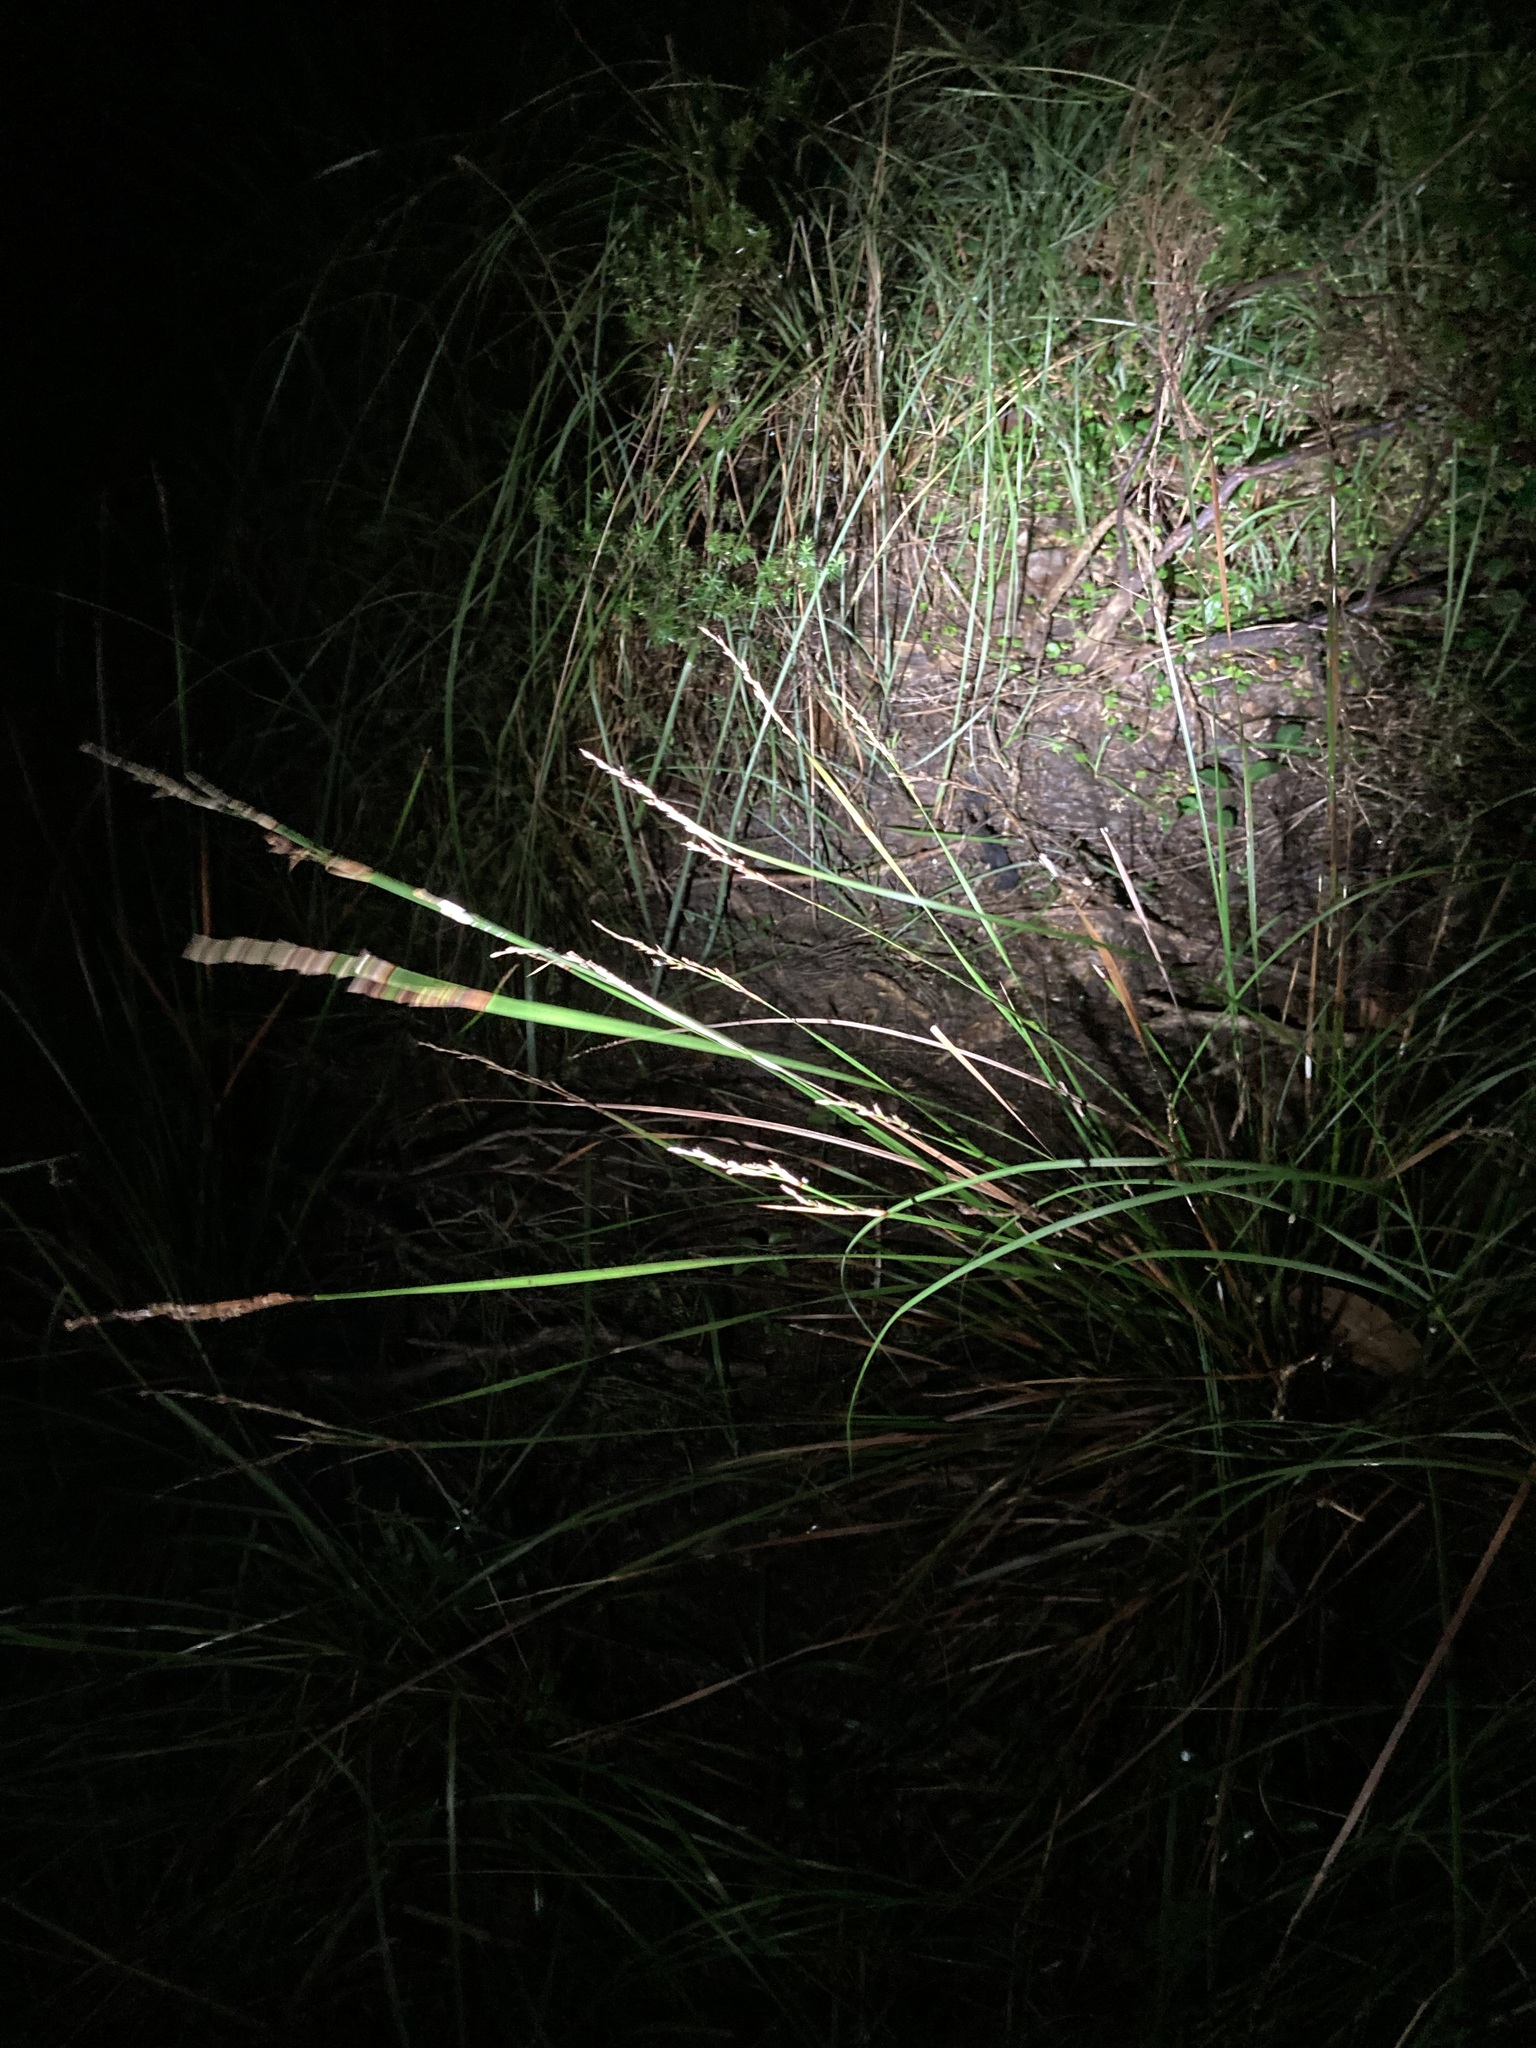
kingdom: Plantae
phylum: Tracheophyta
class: Liliopsida
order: Poales
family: Cyperaceae
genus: Lepidosperma
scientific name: Lepidosperma laterale
